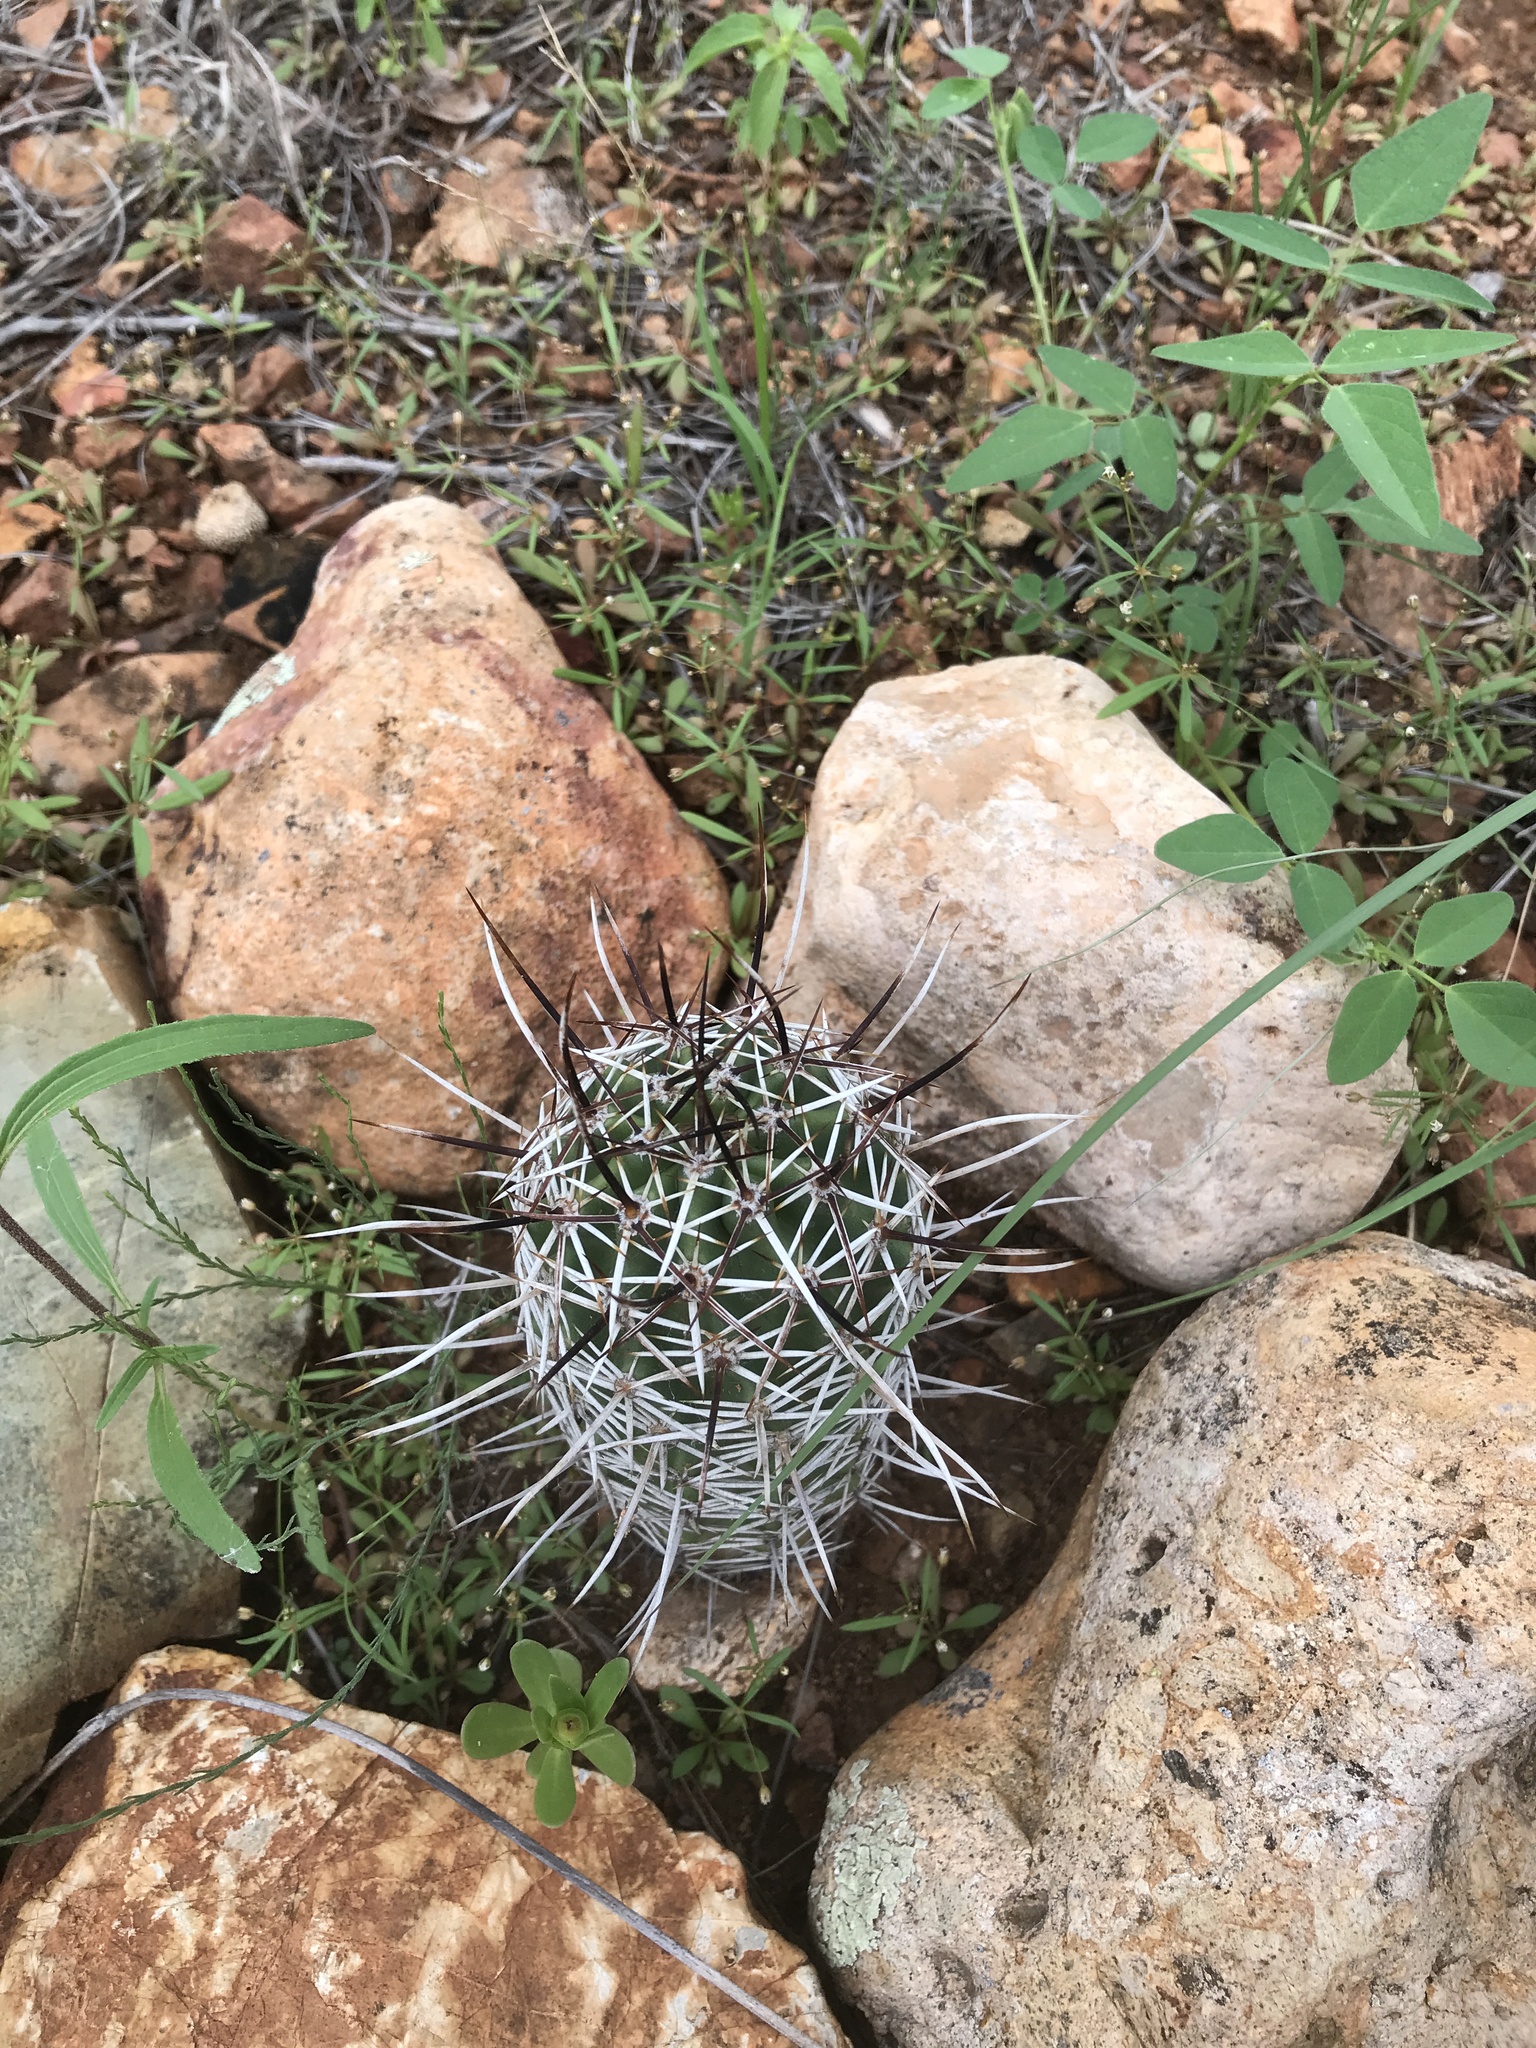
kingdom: Plantae
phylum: Tracheophyta
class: Magnoliopsida
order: Caryophyllales
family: Cactaceae
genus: Echinocereus
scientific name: Echinocereus fendleri
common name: Fendler's hedgehog cactus
